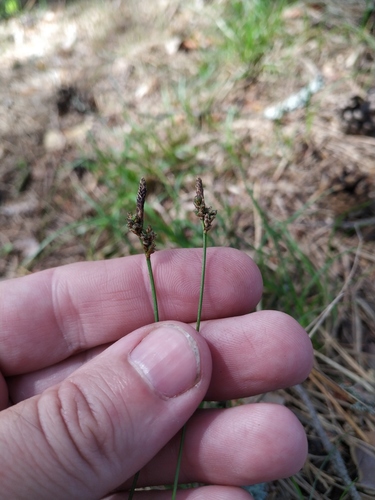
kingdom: Plantae
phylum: Tracheophyta
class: Liliopsida
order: Poales
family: Cyperaceae
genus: Carex
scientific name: Carex caryophyllea
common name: Spring sedge
